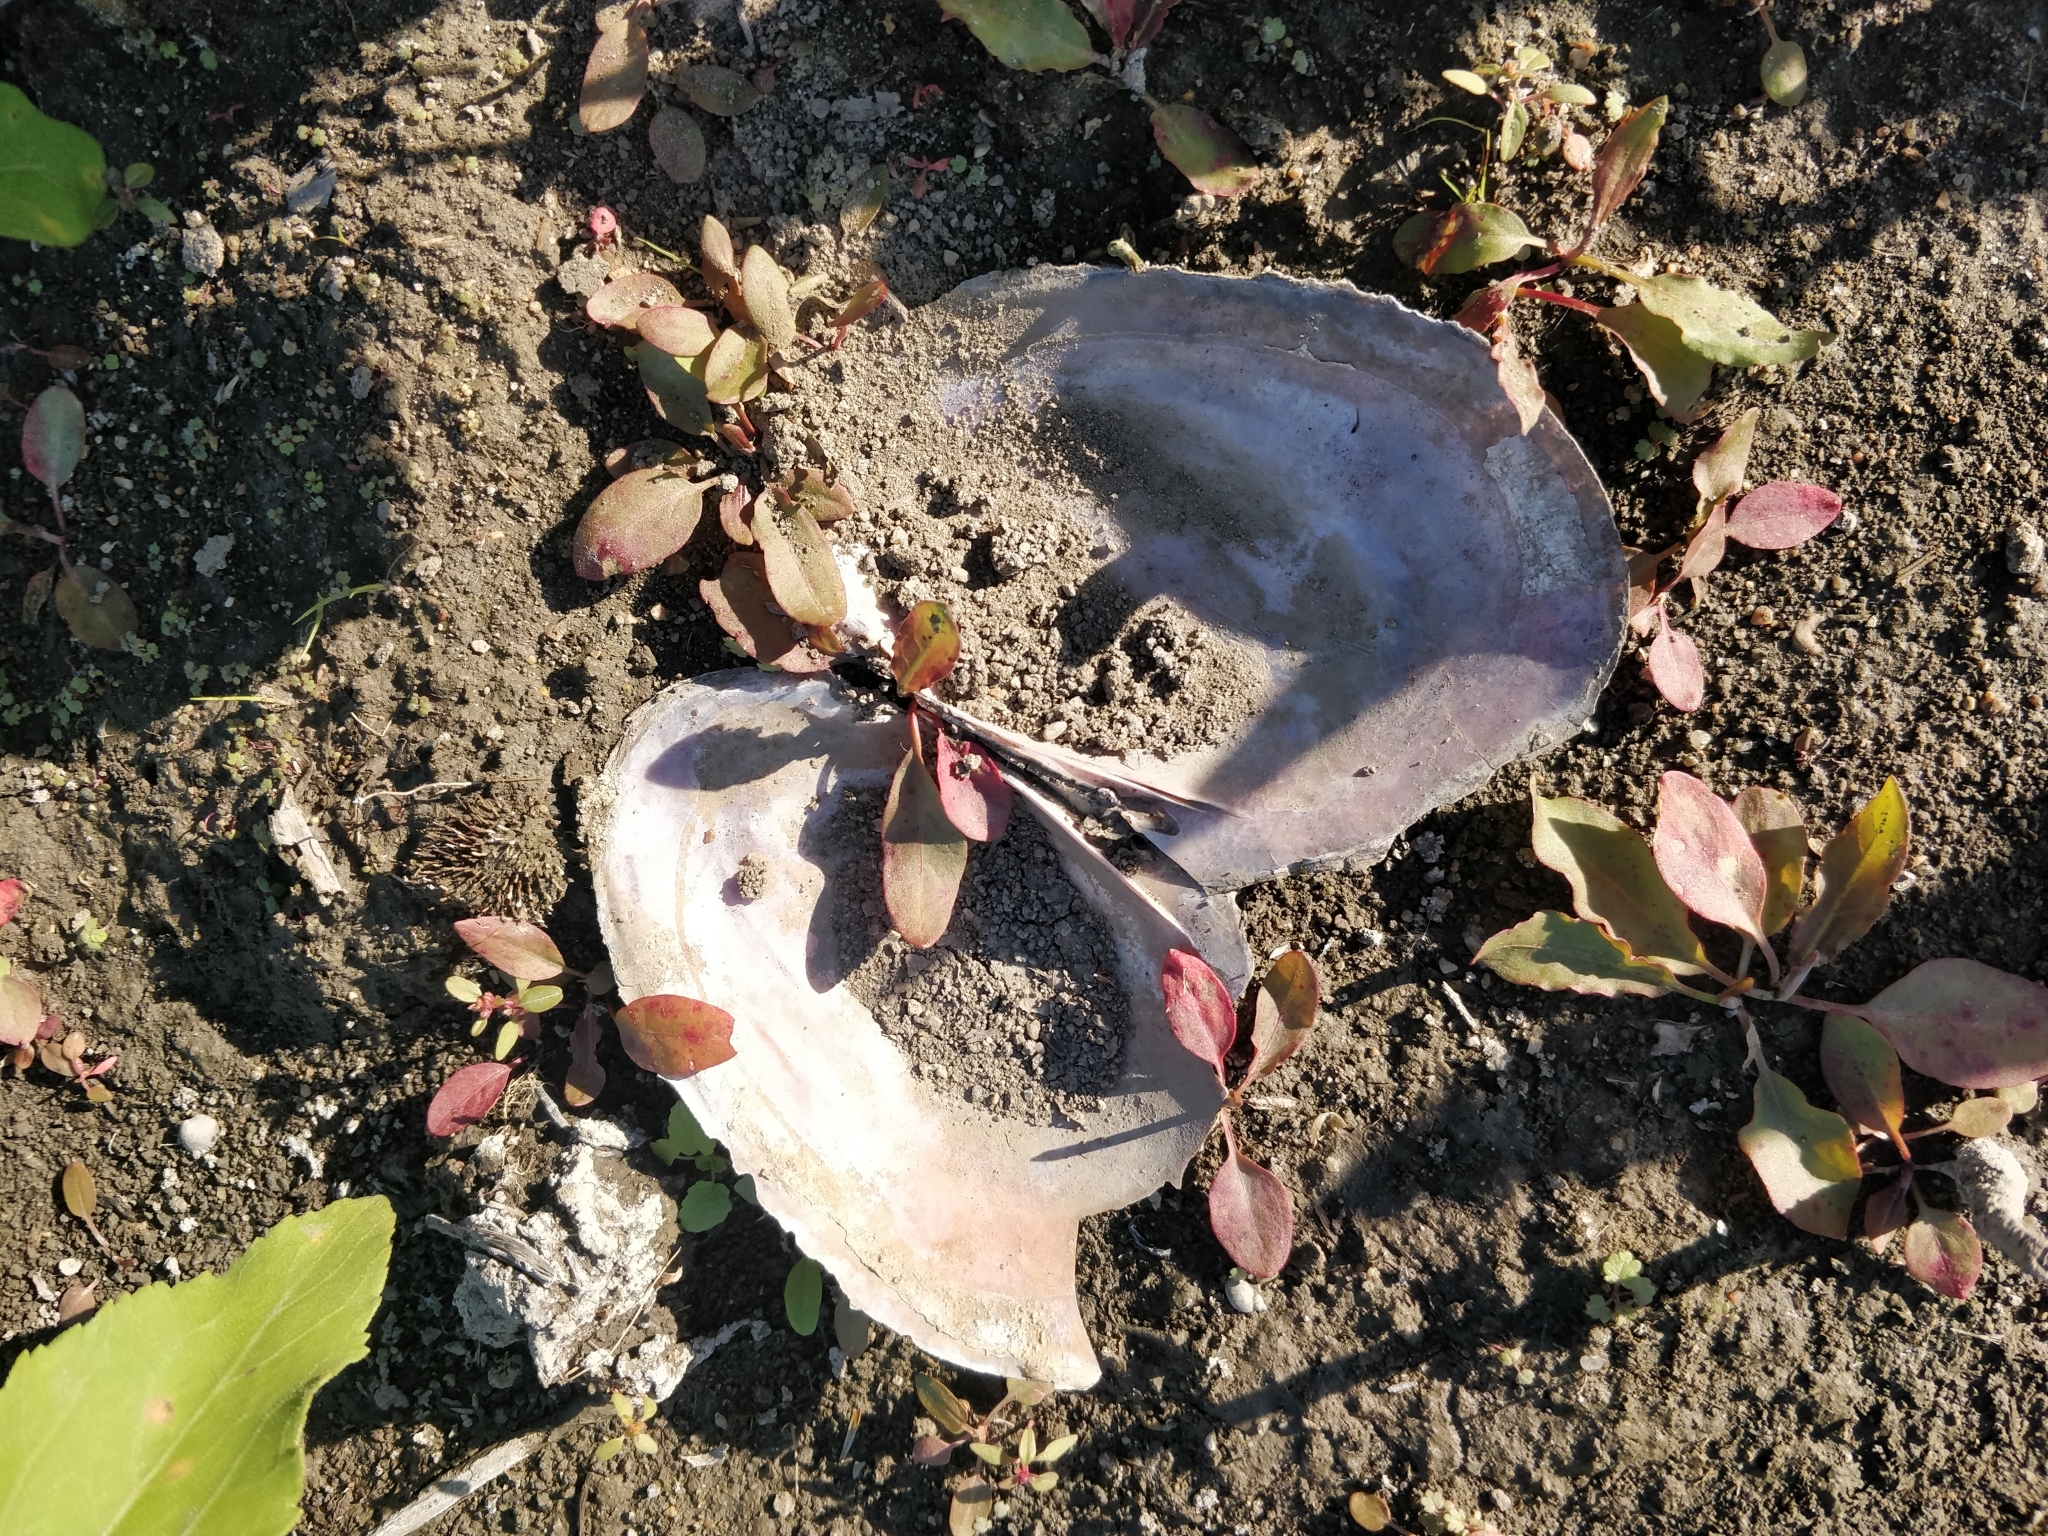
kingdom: Animalia
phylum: Mollusca
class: Bivalvia
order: Unionida
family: Unionidae
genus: Potamilus
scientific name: Potamilus ohiensis
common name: Pink papershell
